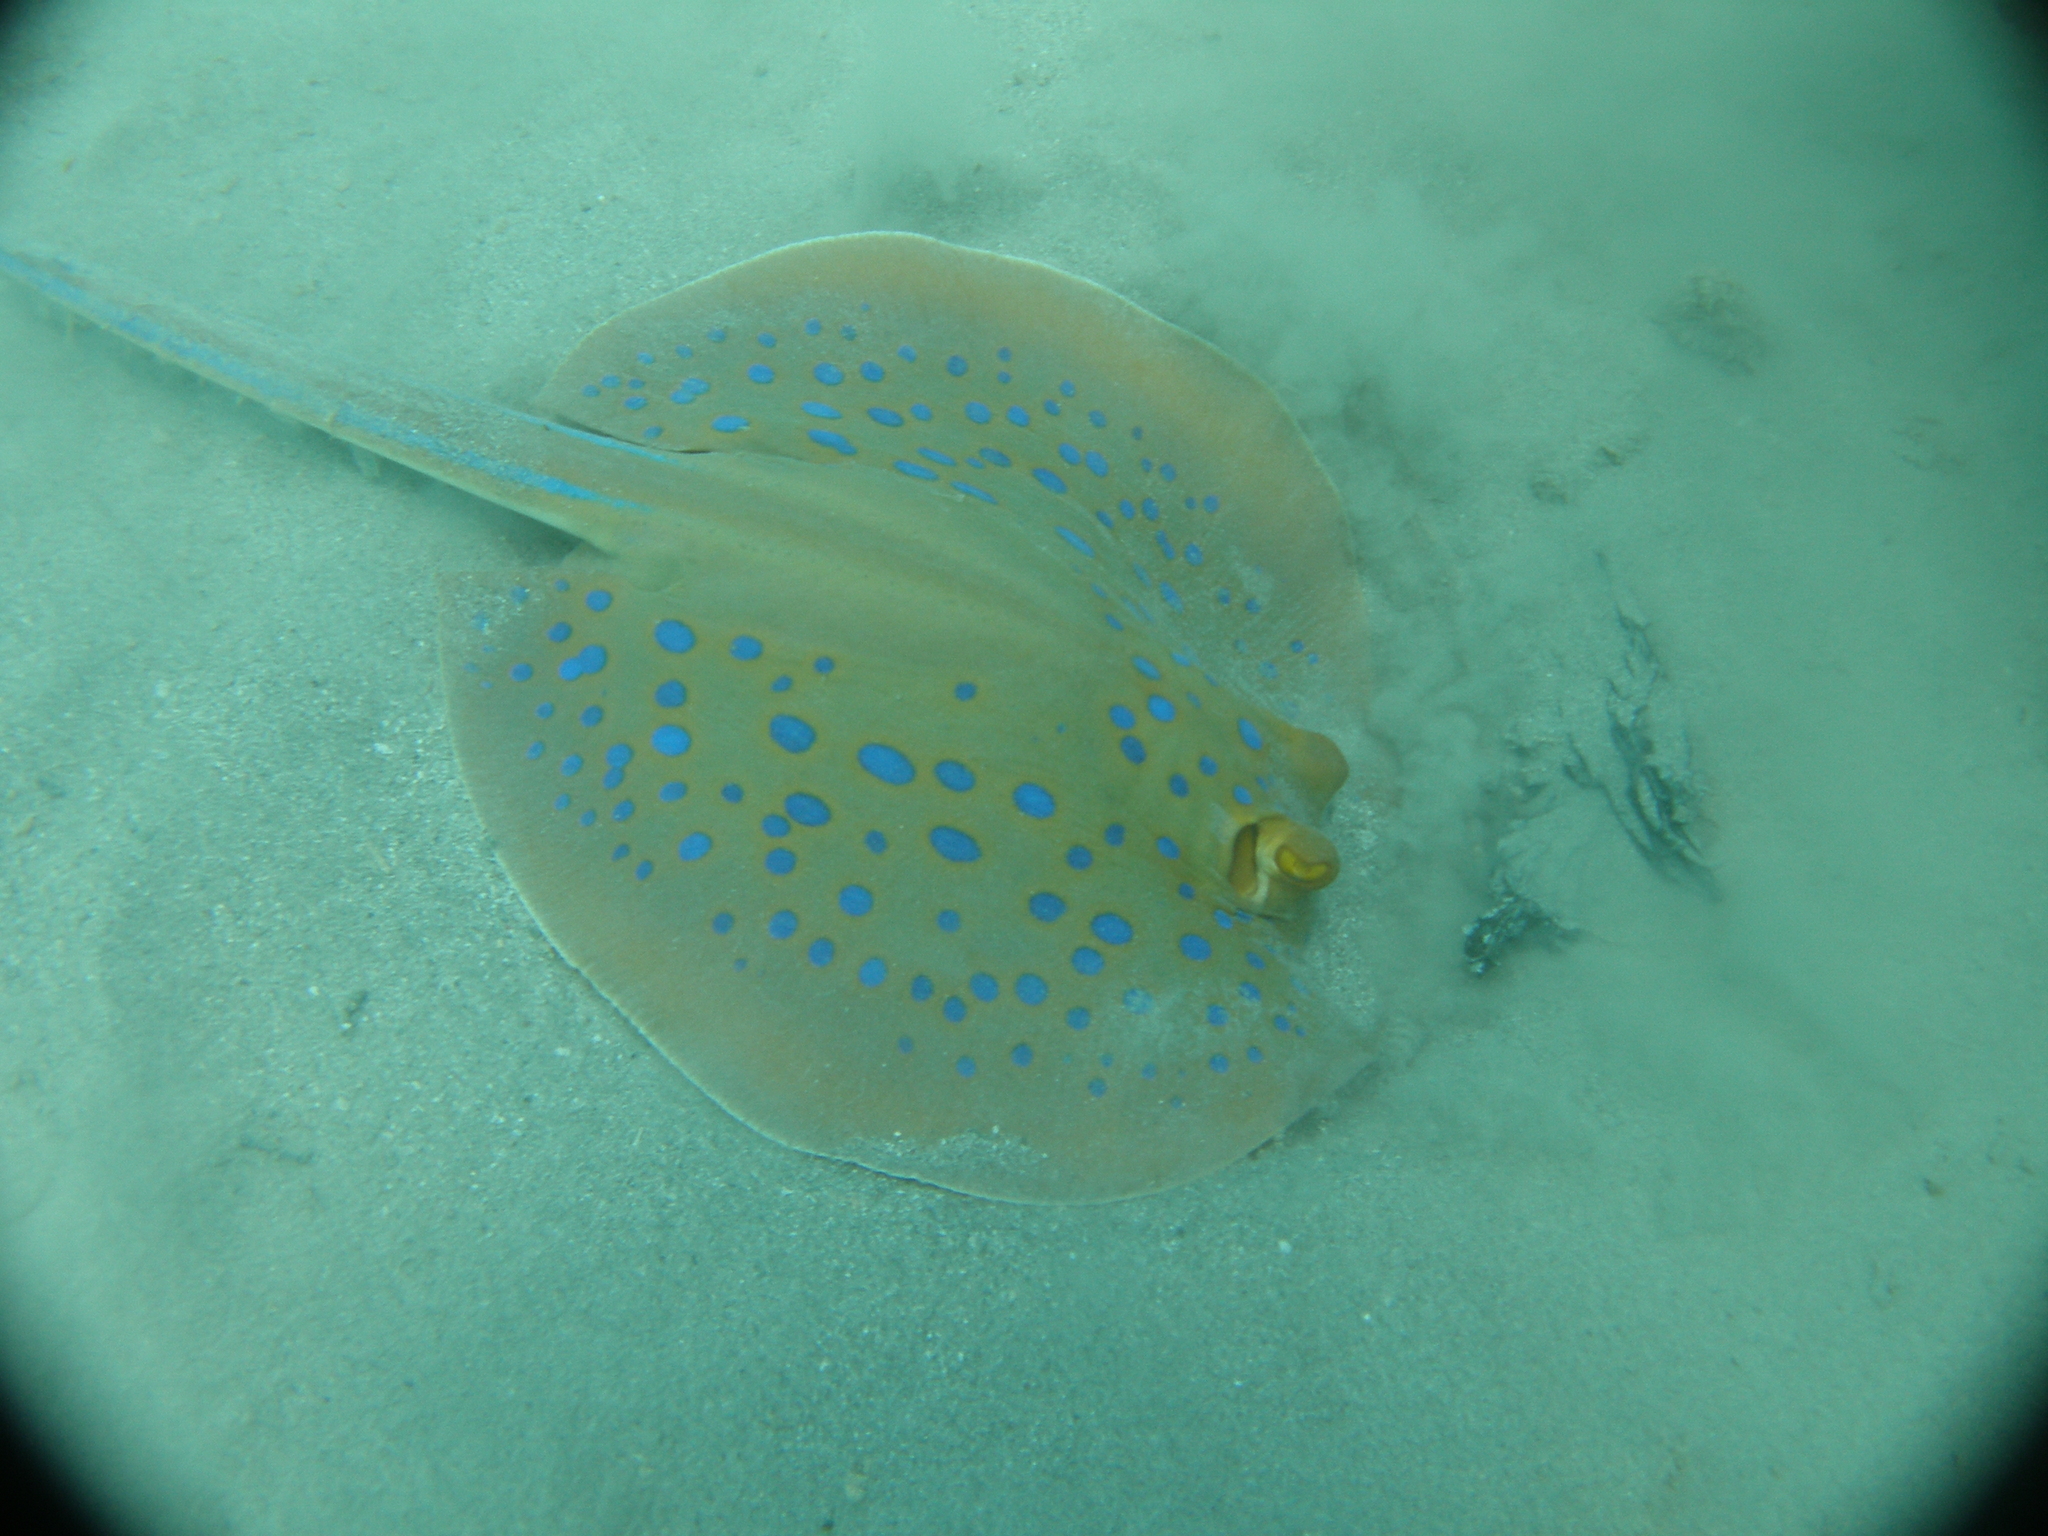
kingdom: Animalia
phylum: Chordata
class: Elasmobranchii
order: Myliobatiformes
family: Dasyatidae
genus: Taeniura
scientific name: Taeniura lymma
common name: Bluespotted ribbontail ray
